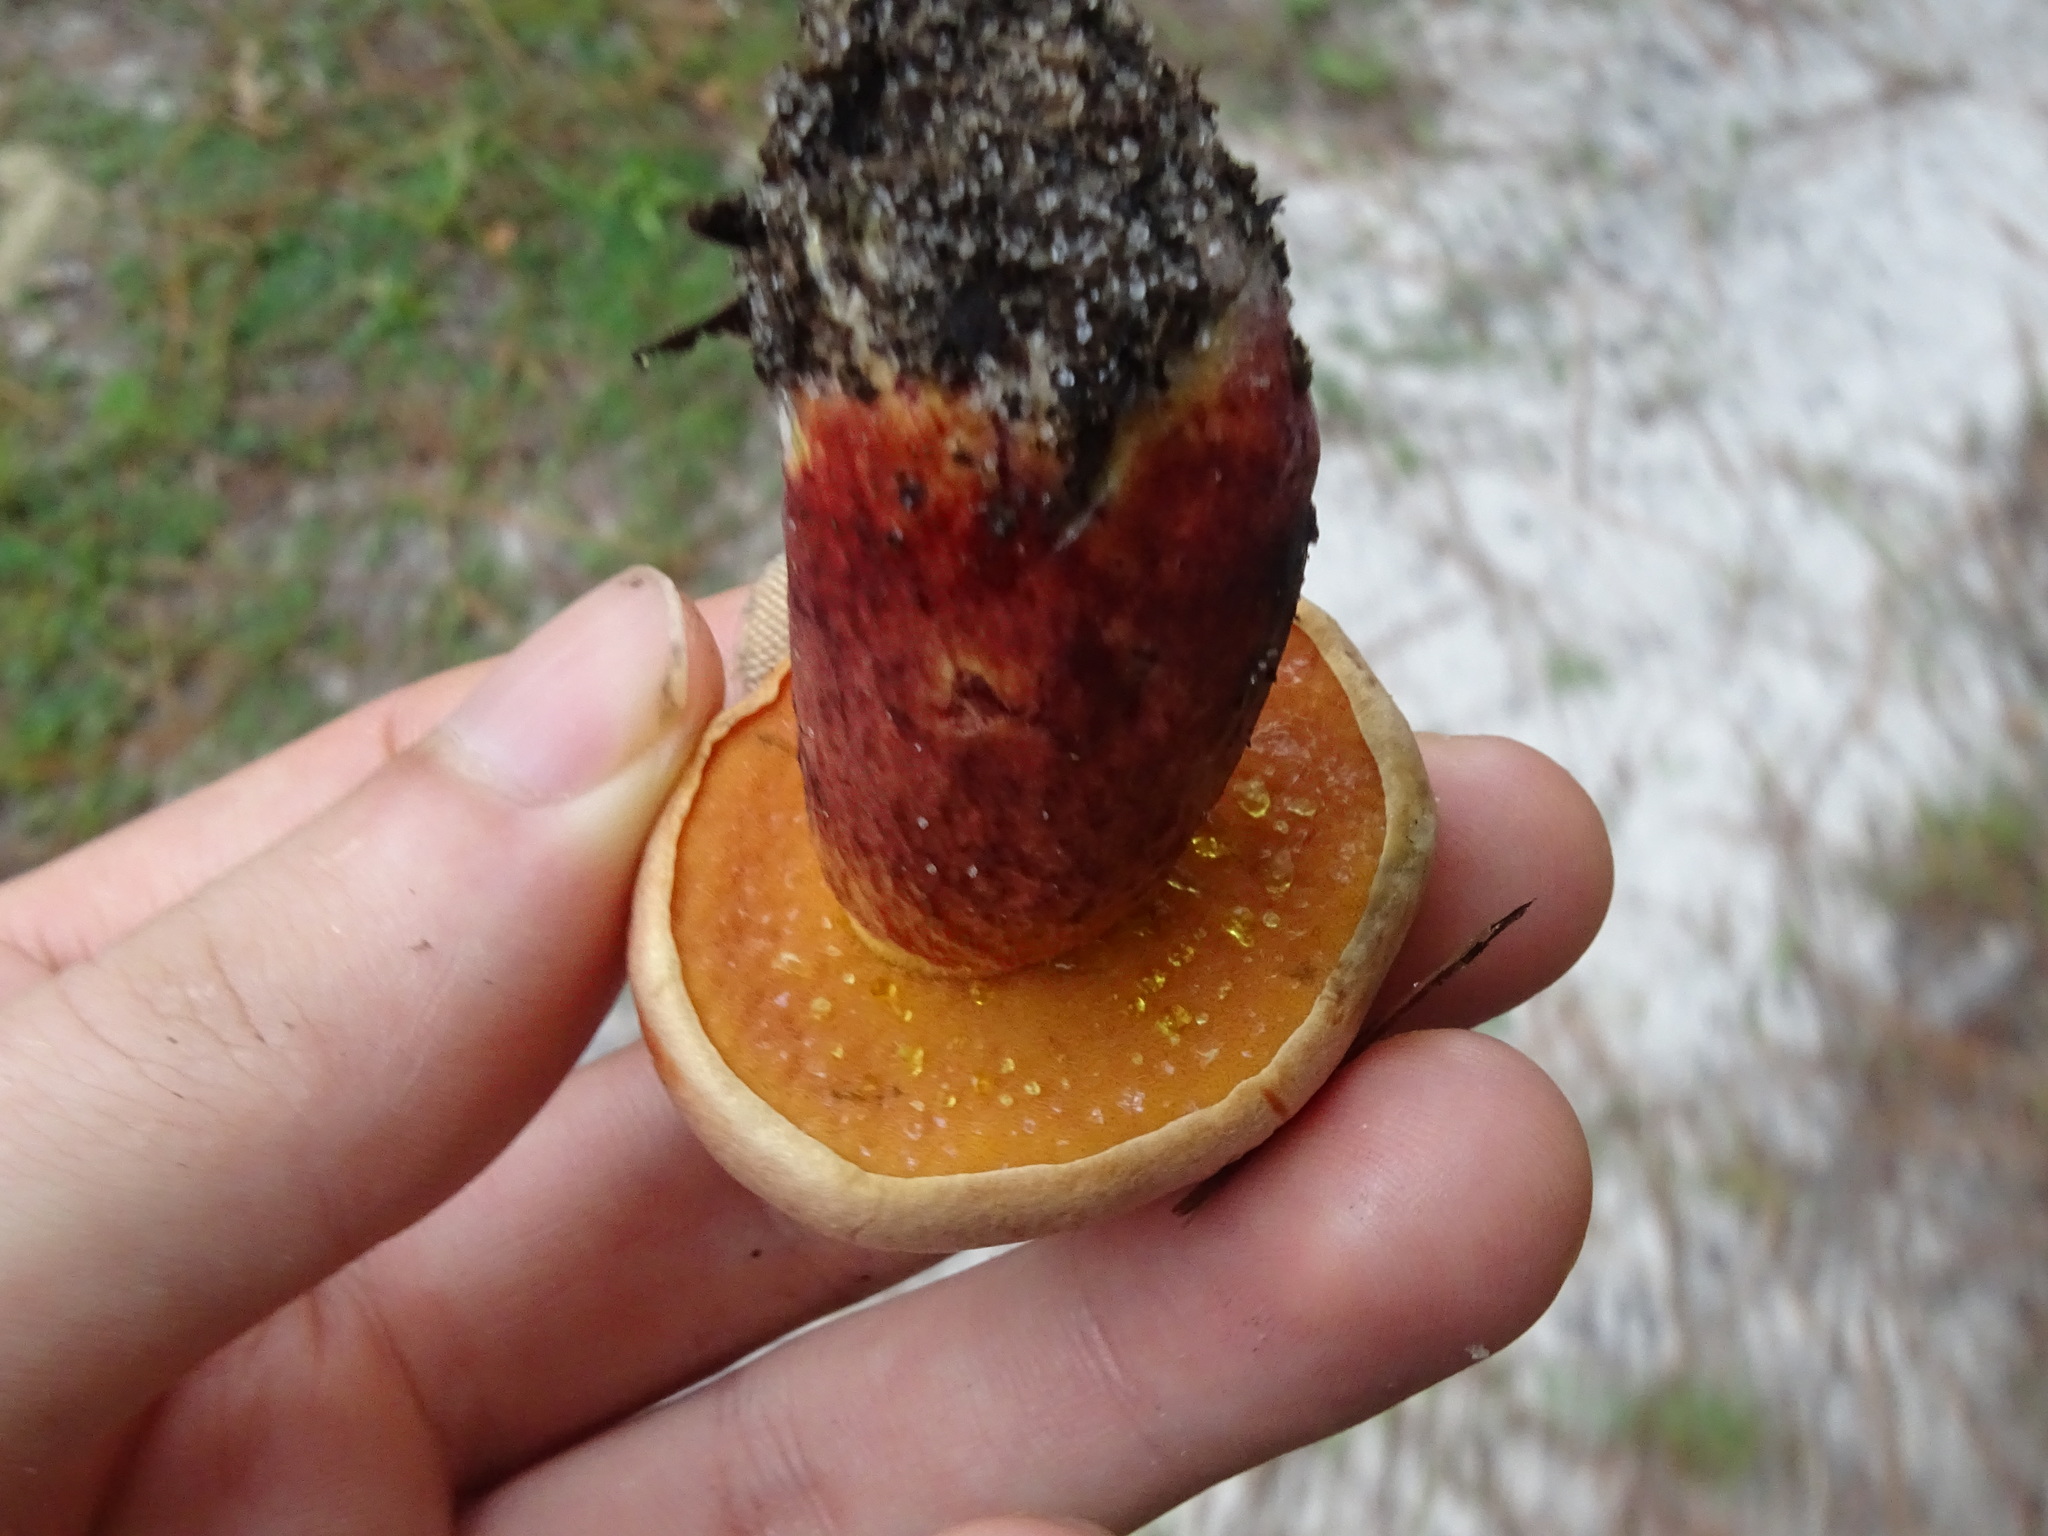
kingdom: Fungi
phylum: Basidiomycota
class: Agaricomycetes
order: Boletales
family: Boletaceae
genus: Butyriboletus
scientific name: Butyriboletus floridanus
